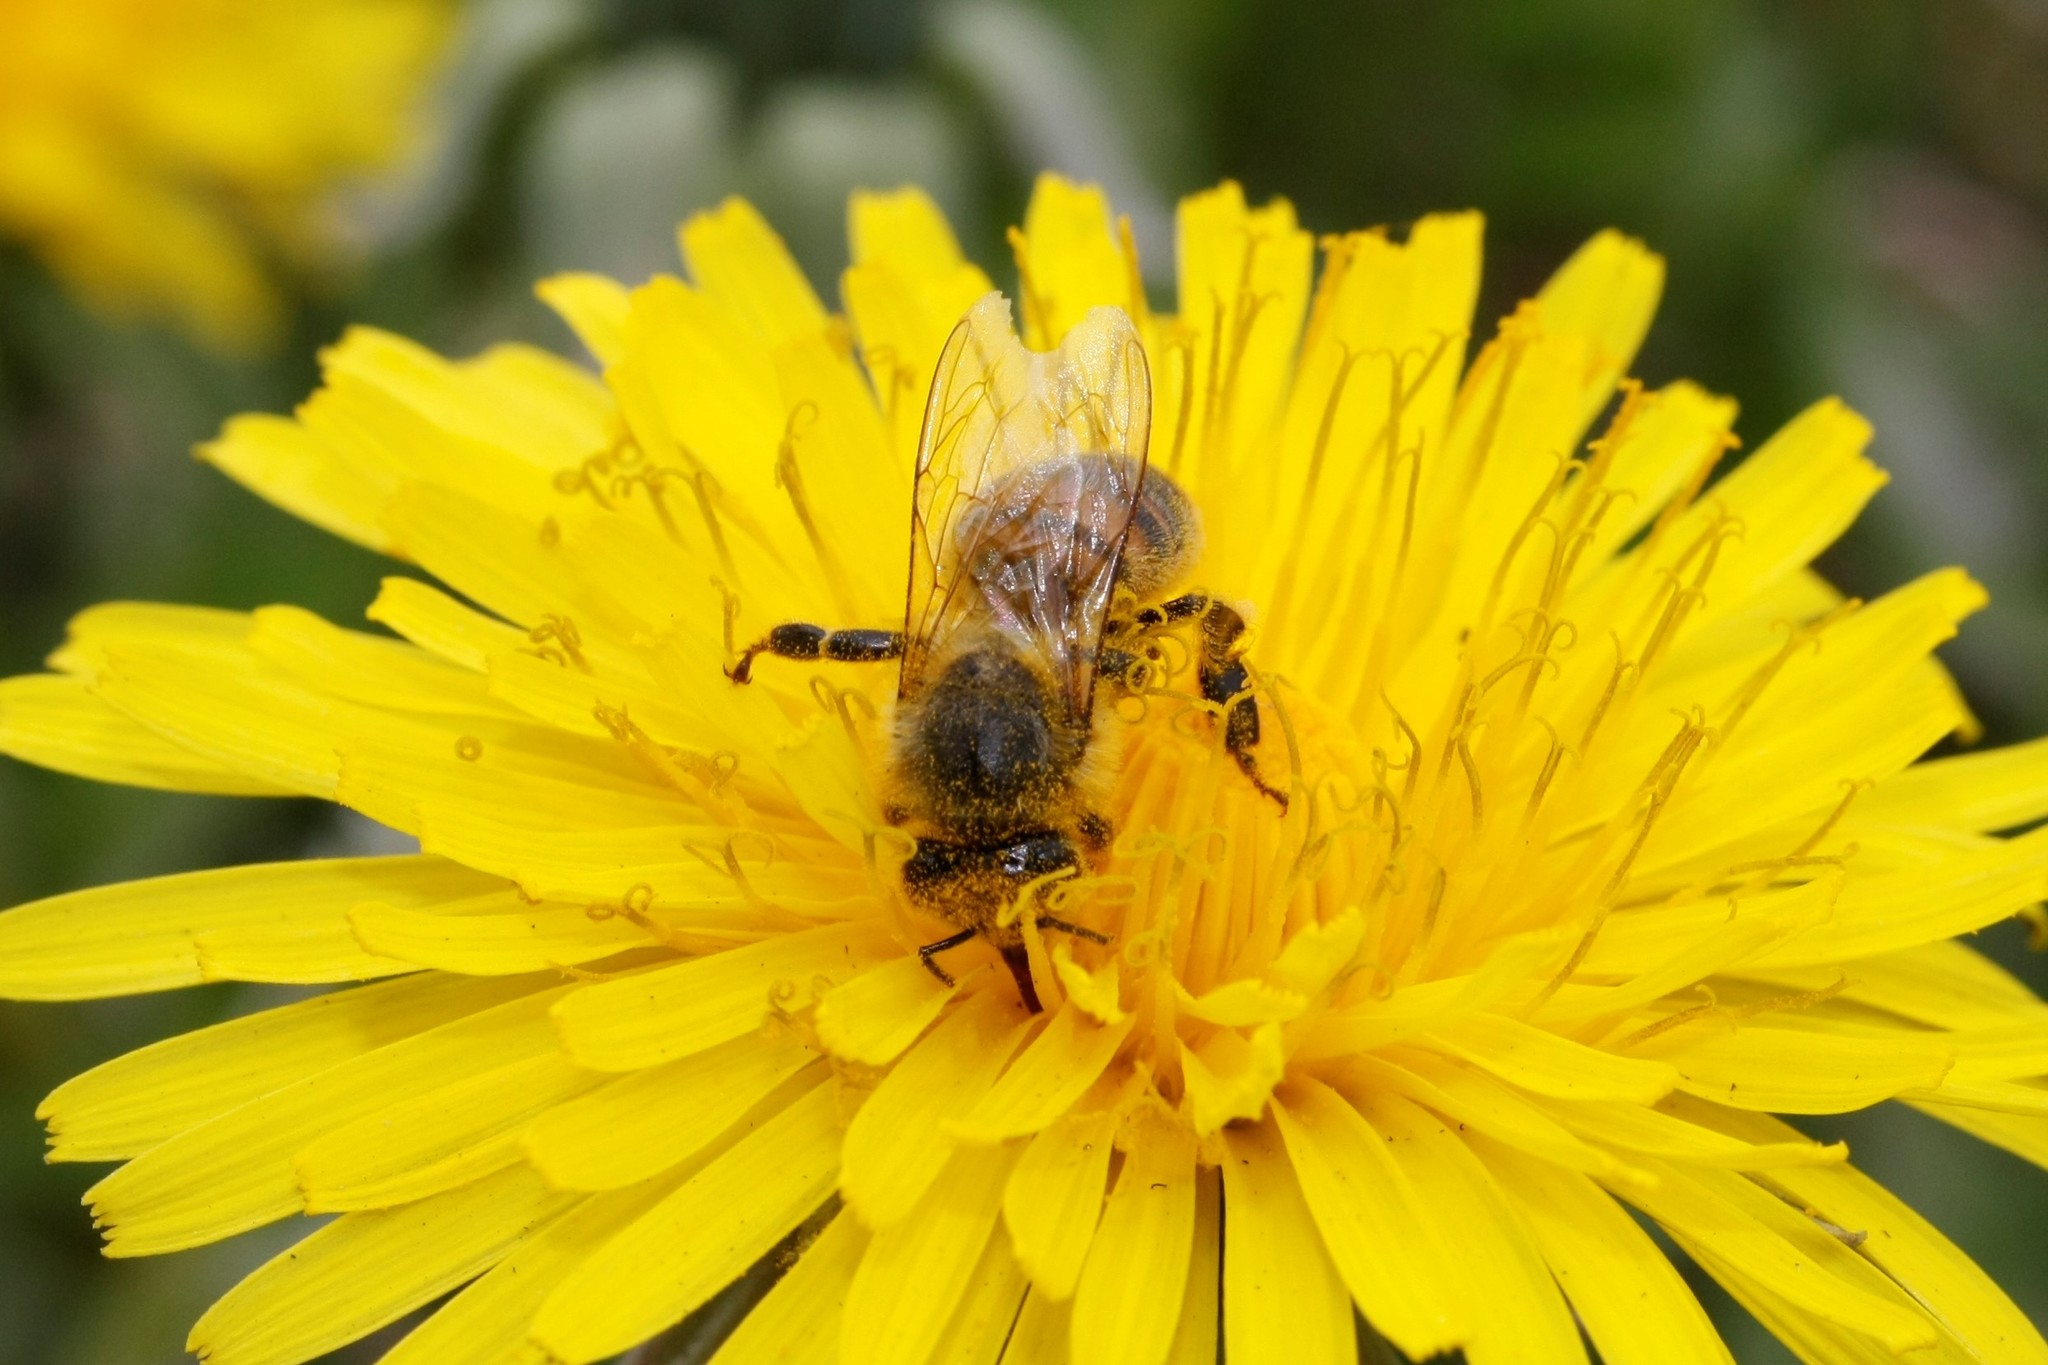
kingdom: Animalia
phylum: Arthropoda
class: Insecta
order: Hymenoptera
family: Apidae
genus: Apis
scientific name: Apis mellifera
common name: Honey bee
